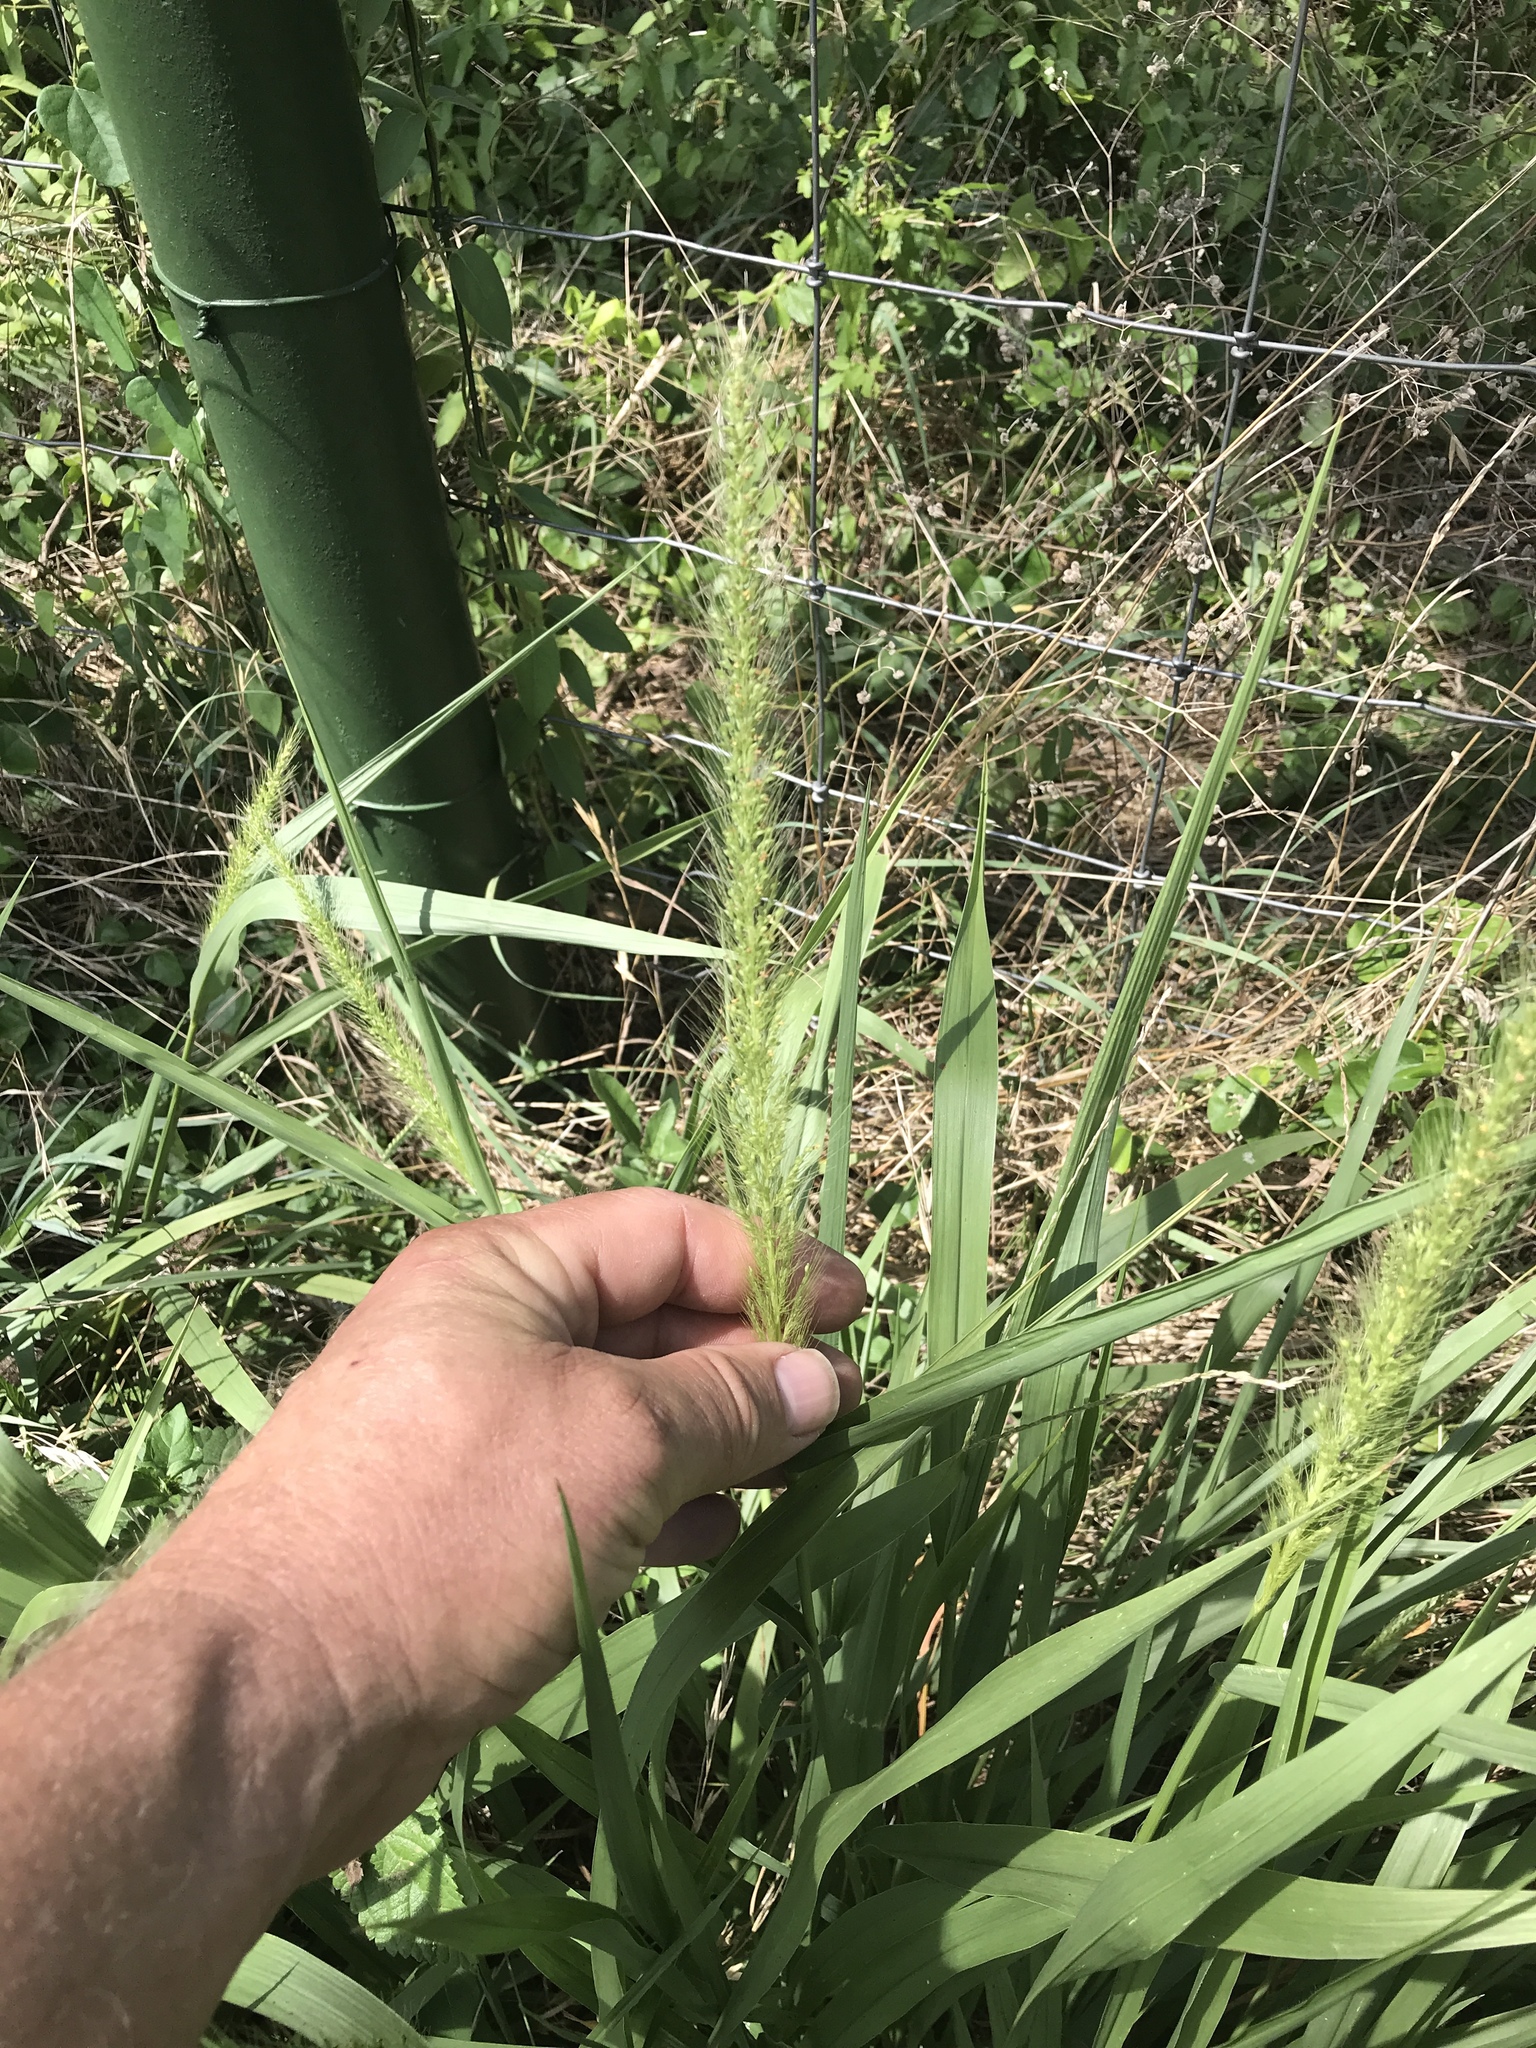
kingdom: Plantae
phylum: Tracheophyta
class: Liliopsida
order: Poales
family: Poaceae
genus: Setaria
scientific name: Setaria scheelei
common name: Southwestern bristle grass
